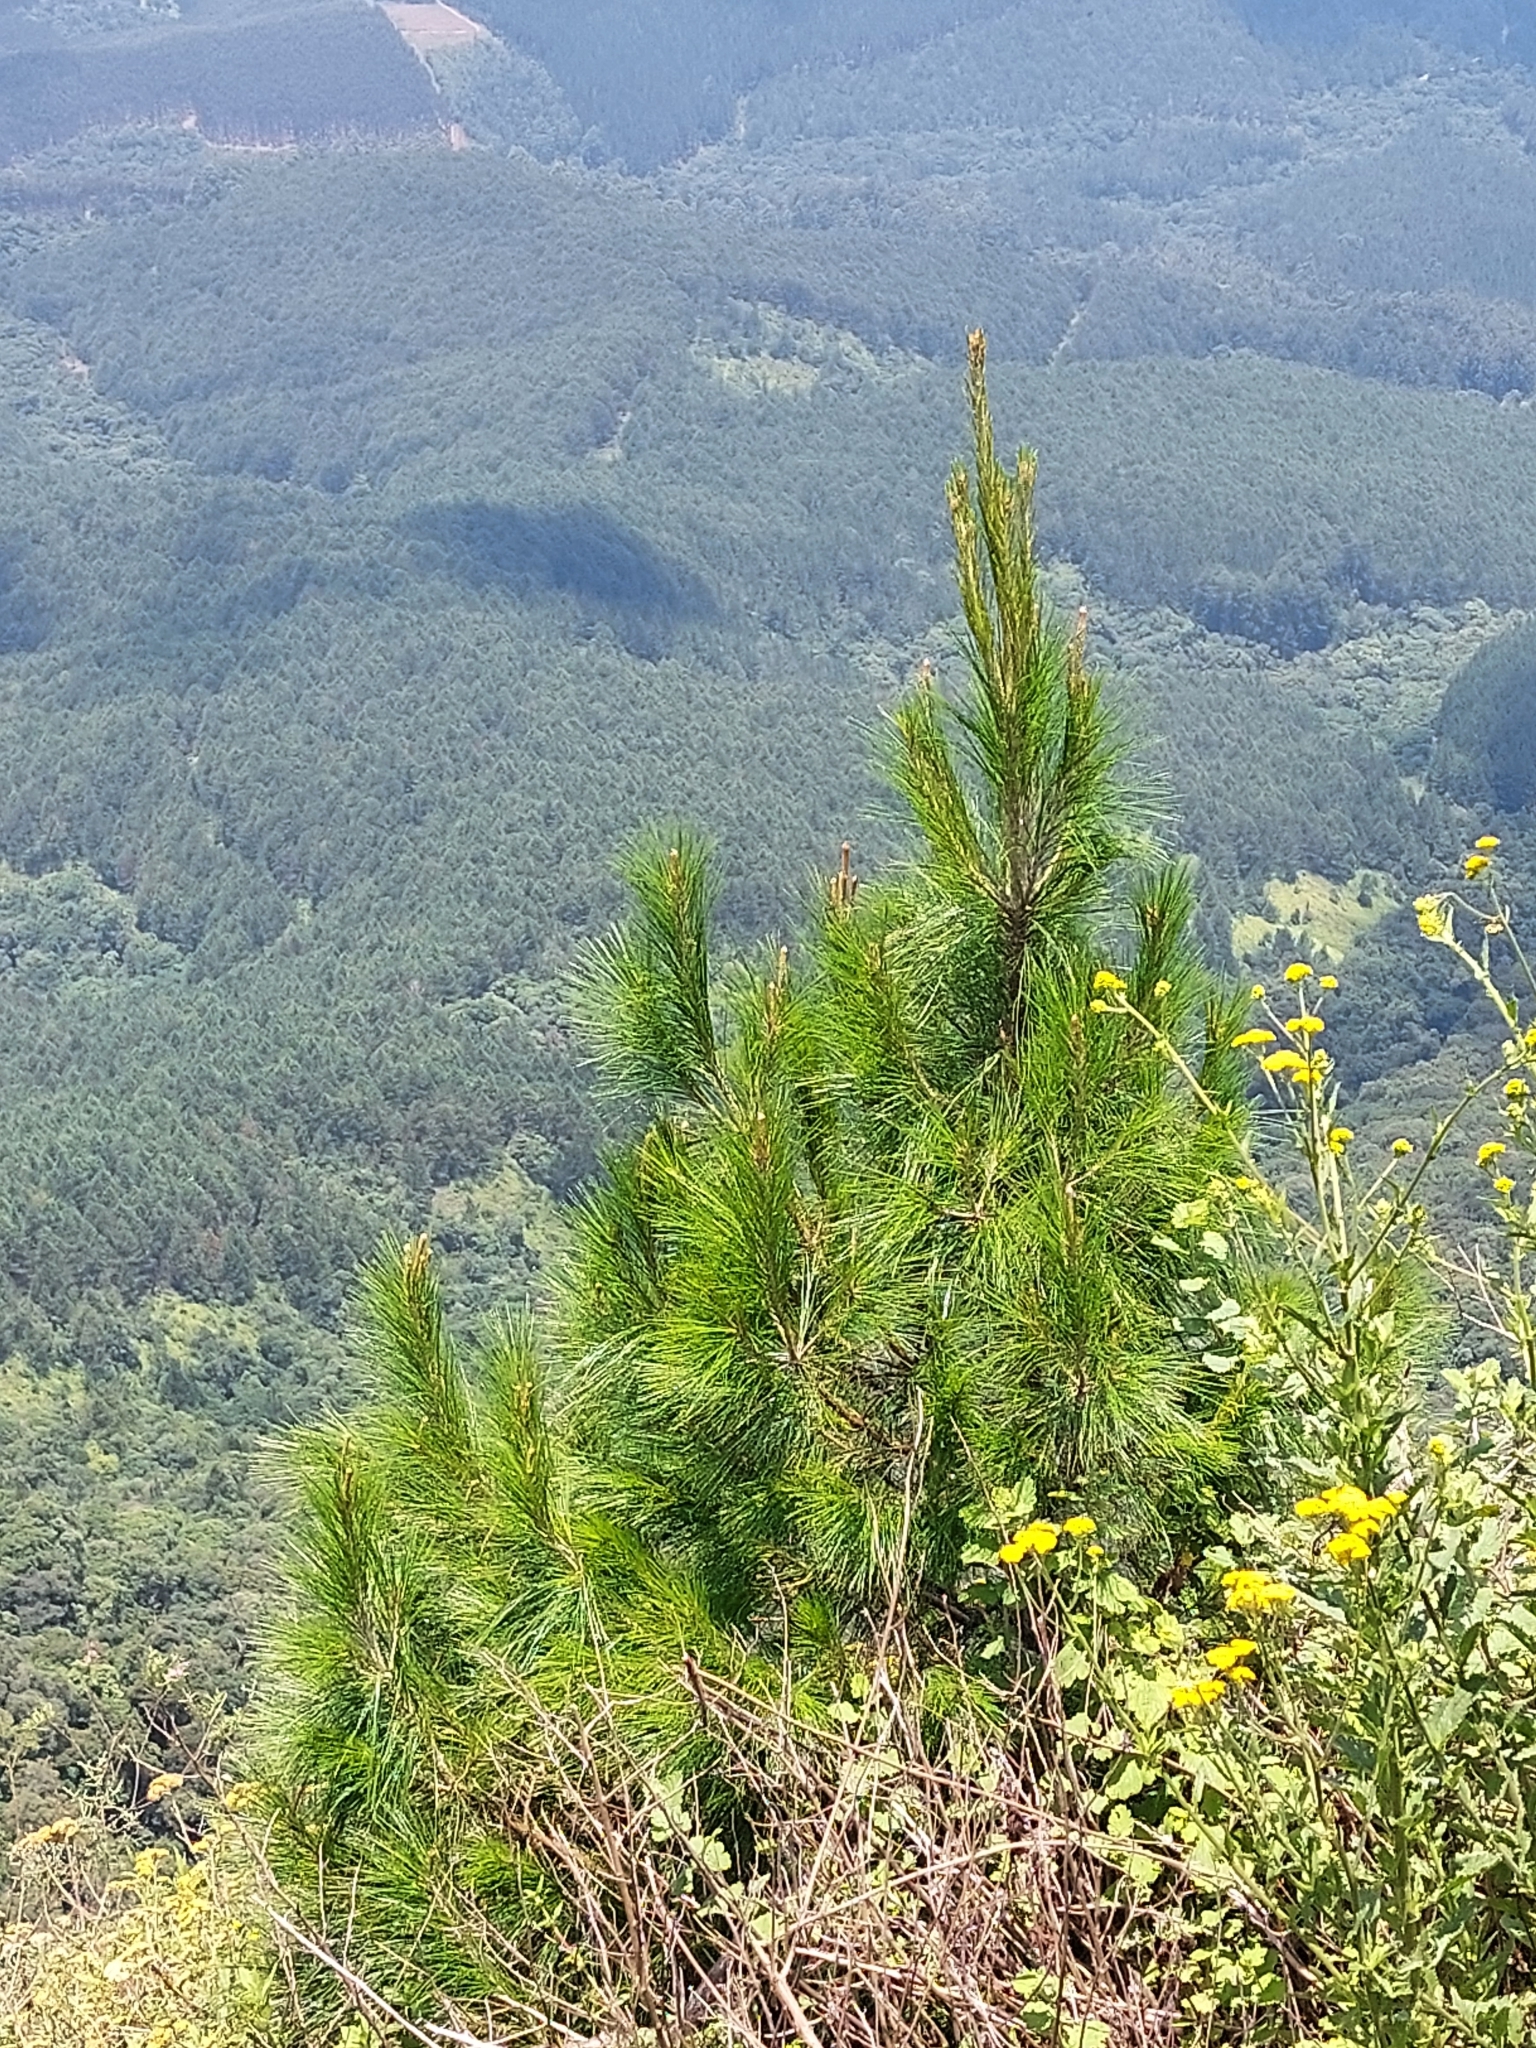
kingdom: Plantae
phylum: Tracheophyta
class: Pinopsida
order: Pinales
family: Pinaceae
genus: Pinus
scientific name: Pinus pinaster
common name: Maritime pine
